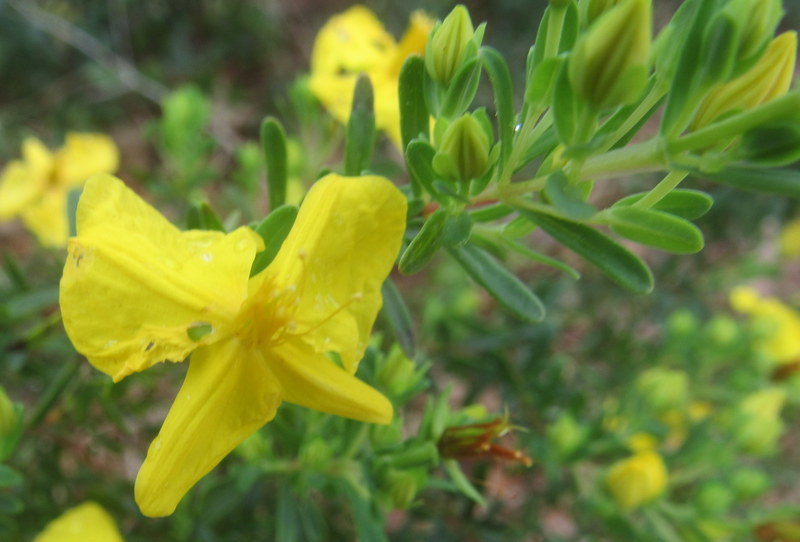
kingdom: Plantae
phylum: Tracheophyta
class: Magnoliopsida
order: Malpighiales
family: Hypericaceae
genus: Hypericum
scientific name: Hypericum microsepalum
